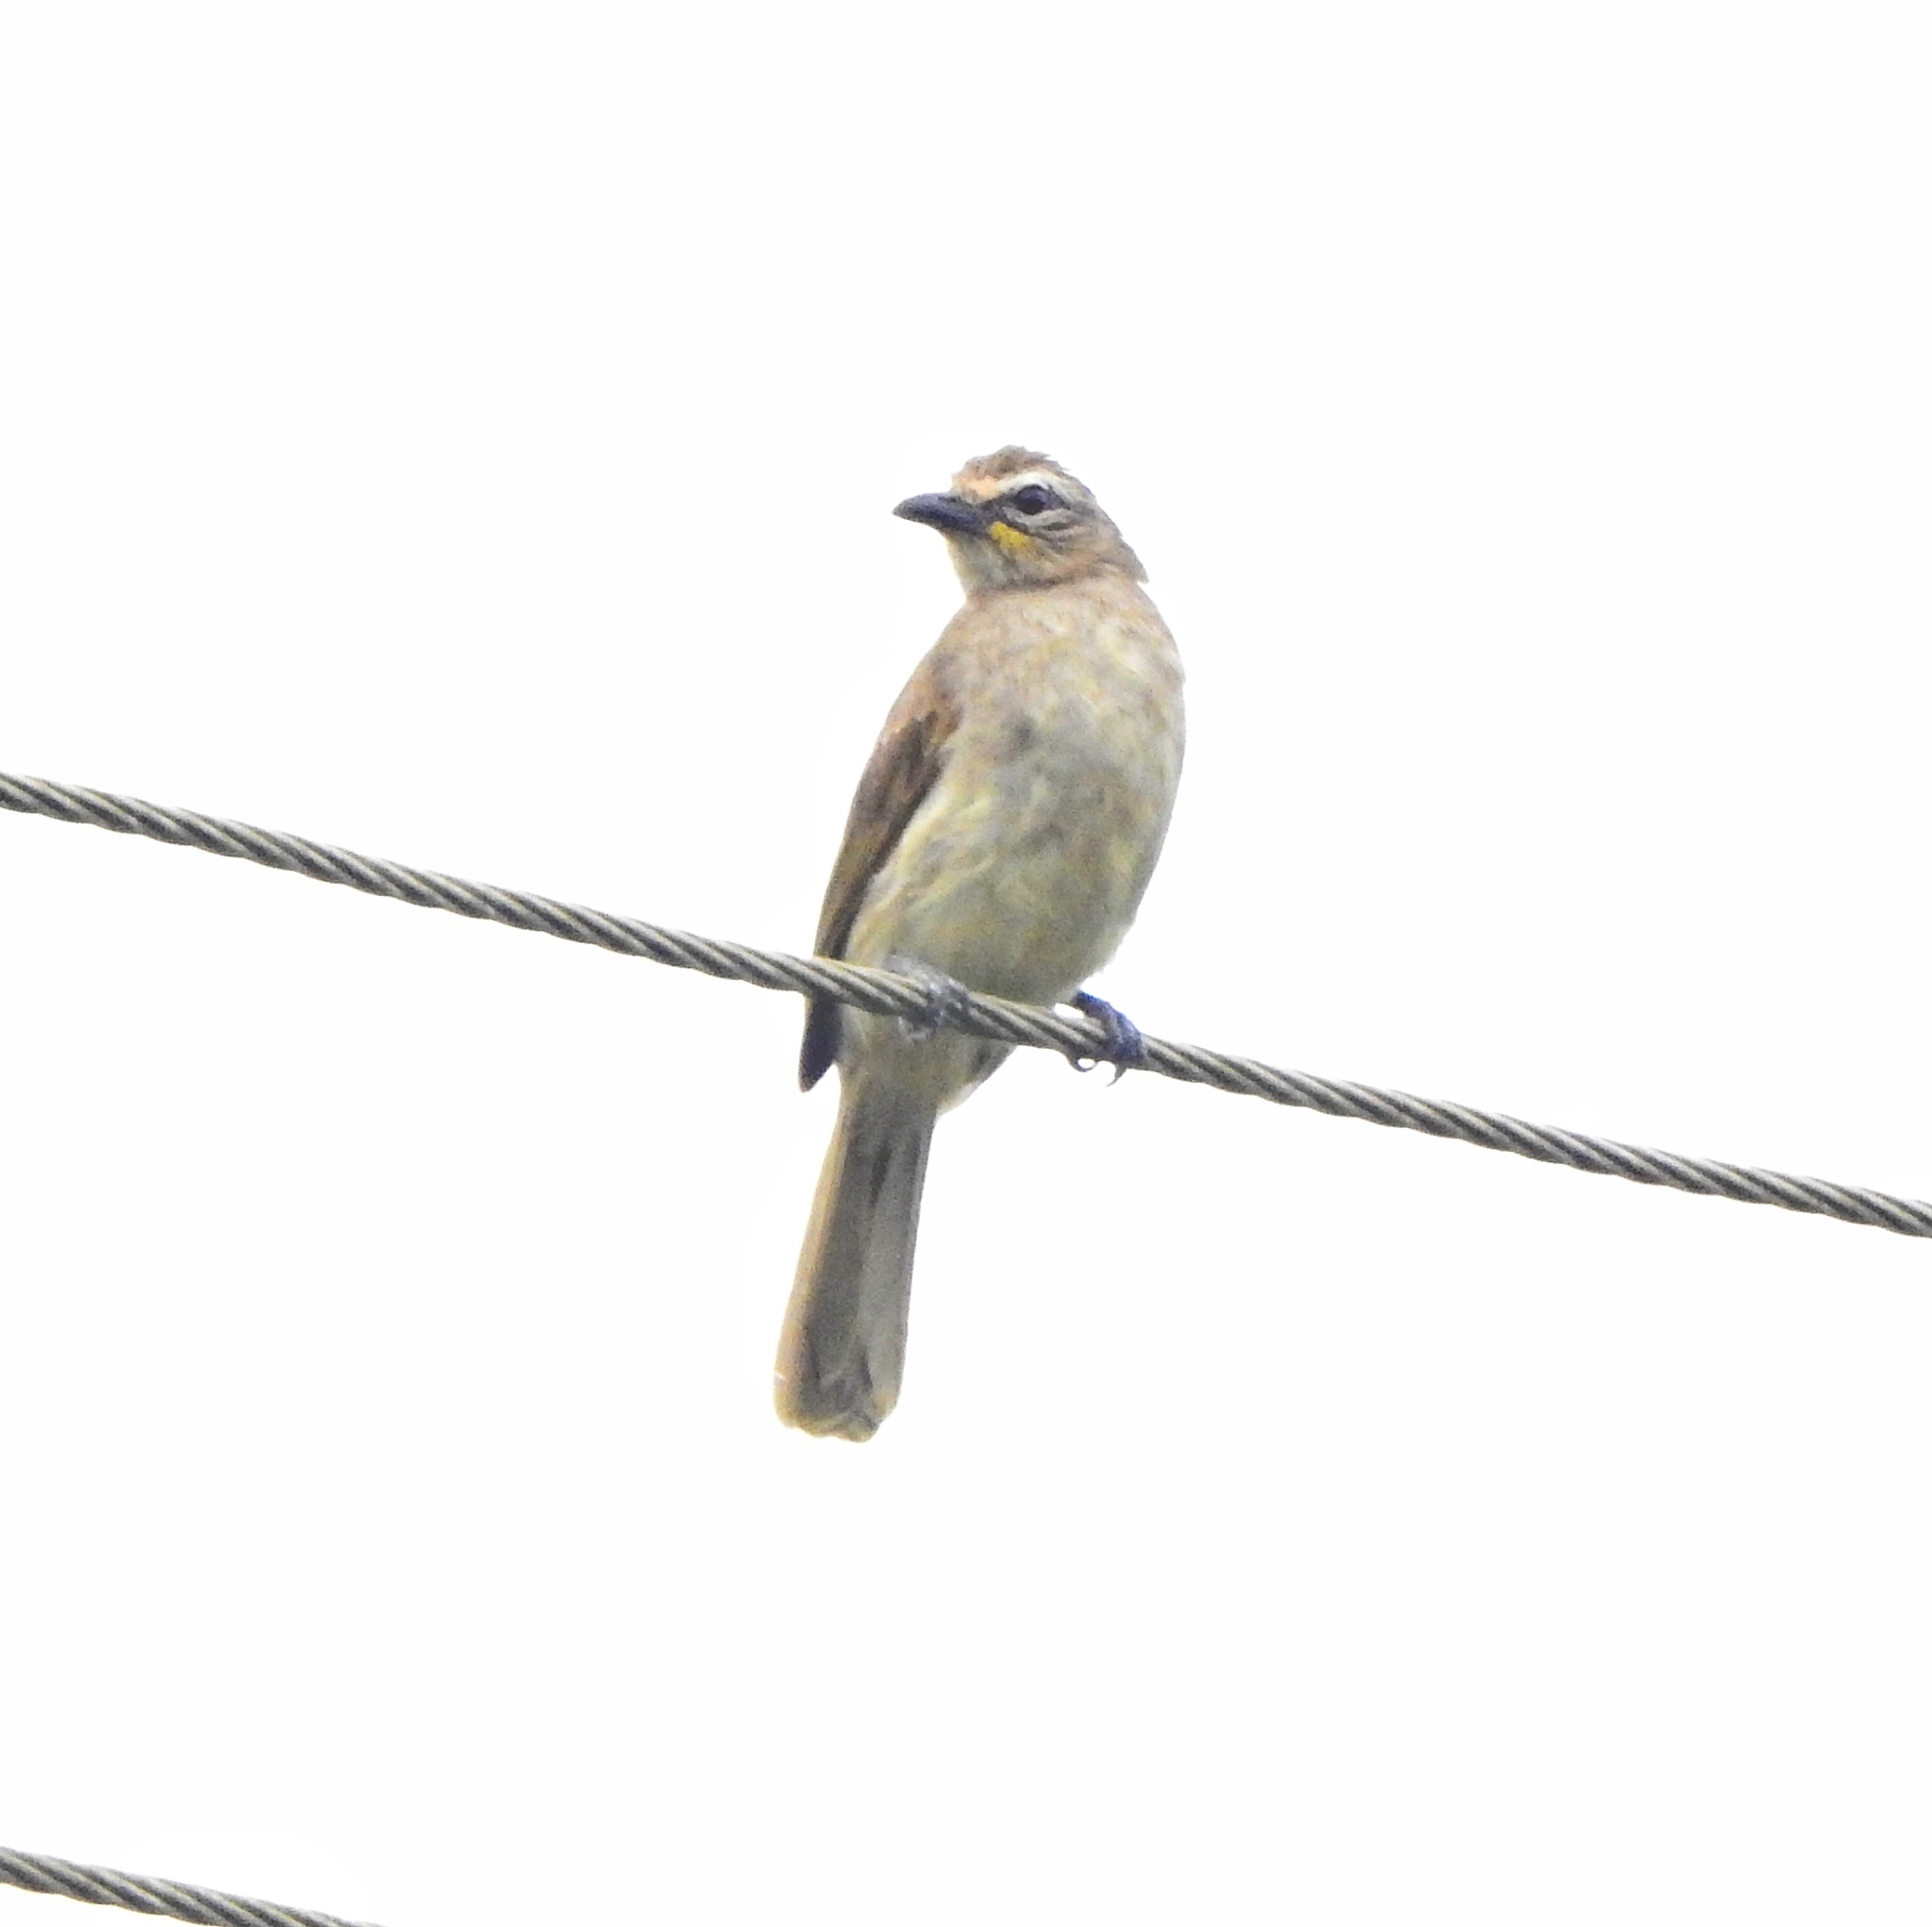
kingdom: Animalia
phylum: Chordata
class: Aves
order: Passeriformes
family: Pycnonotidae
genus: Pycnonotus
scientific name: Pycnonotus luteolus
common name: White-browed bulbul
